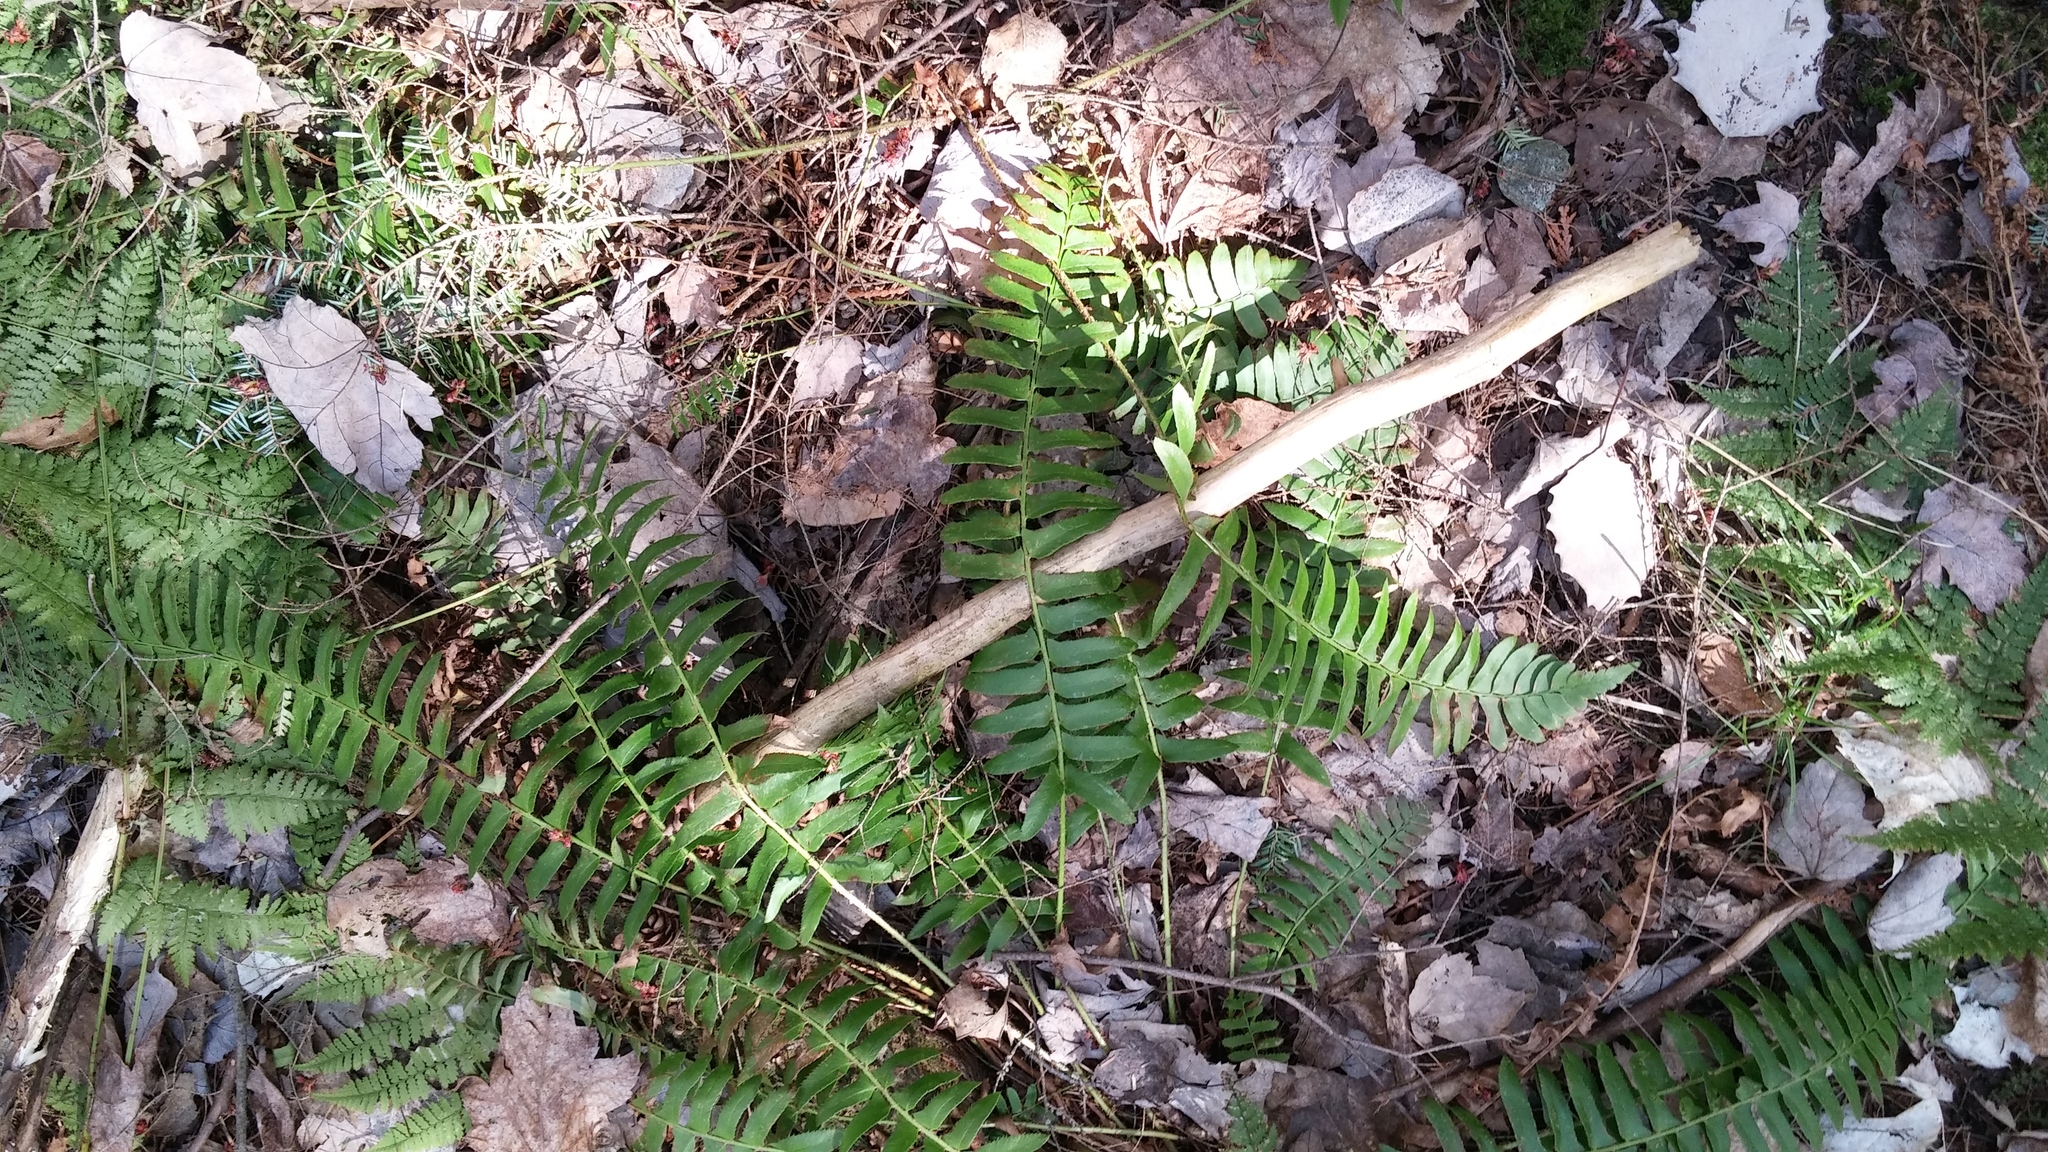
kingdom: Plantae
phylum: Tracheophyta
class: Polypodiopsida
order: Polypodiales
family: Dryopteridaceae
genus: Polystichum
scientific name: Polystichum acrostichoides
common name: Christmas fern
